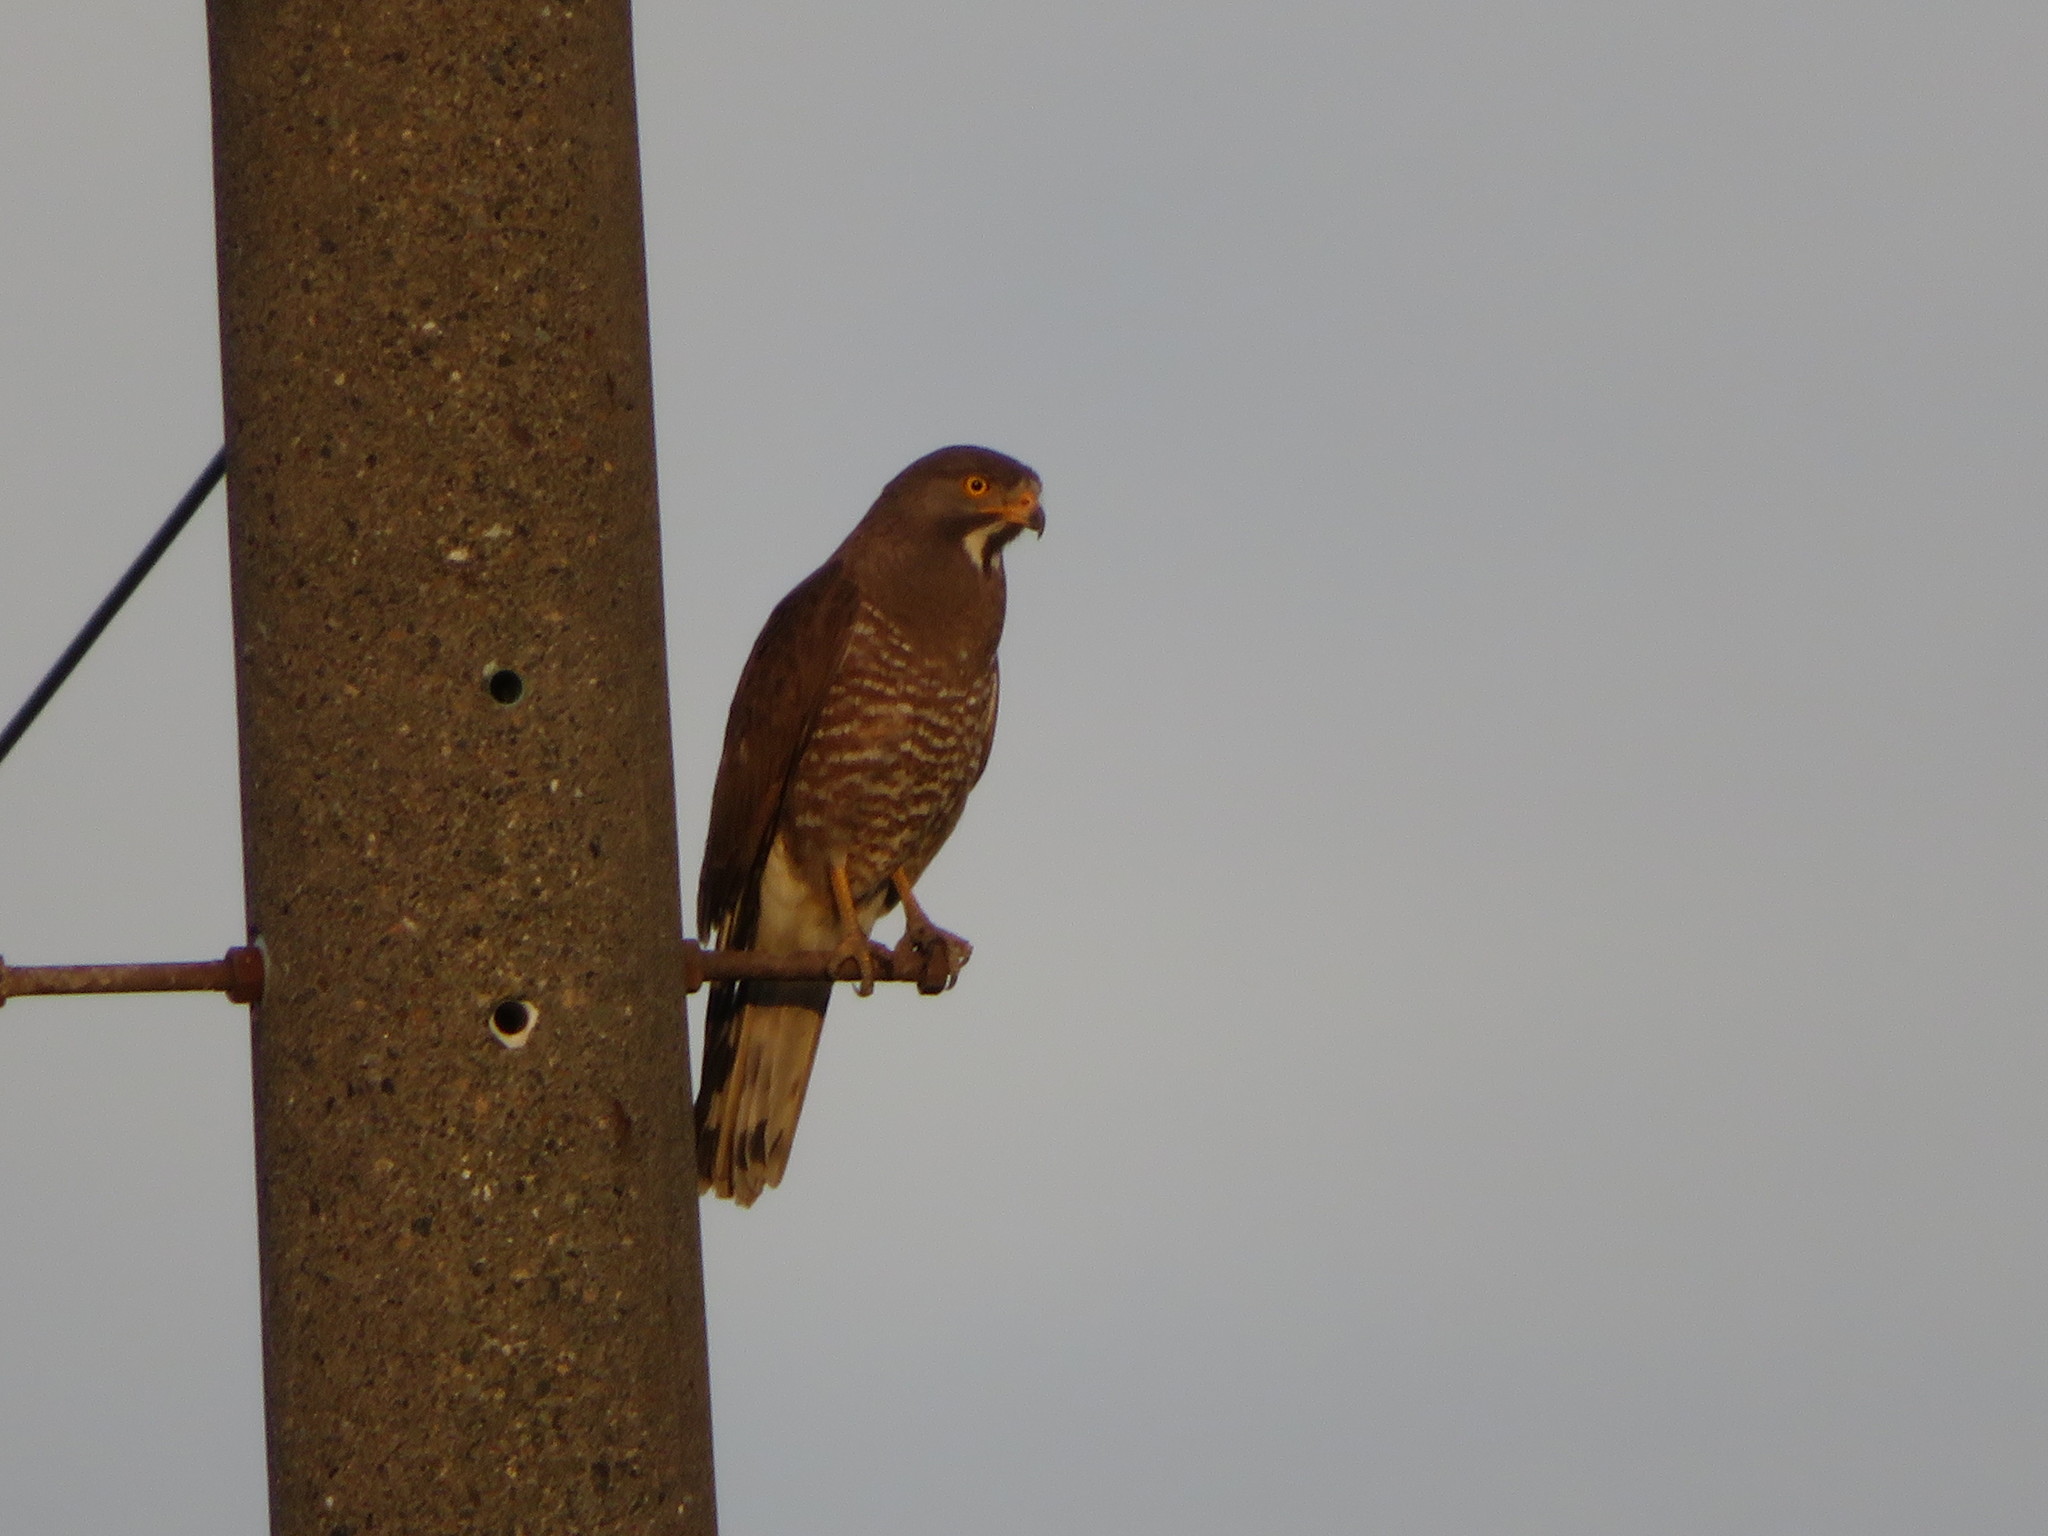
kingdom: Animalia
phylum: Chordata
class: Aves
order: Accipitriformes
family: Accipitridae
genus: Butastur
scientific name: Butastur indicus
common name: Grey-faced buzzard
